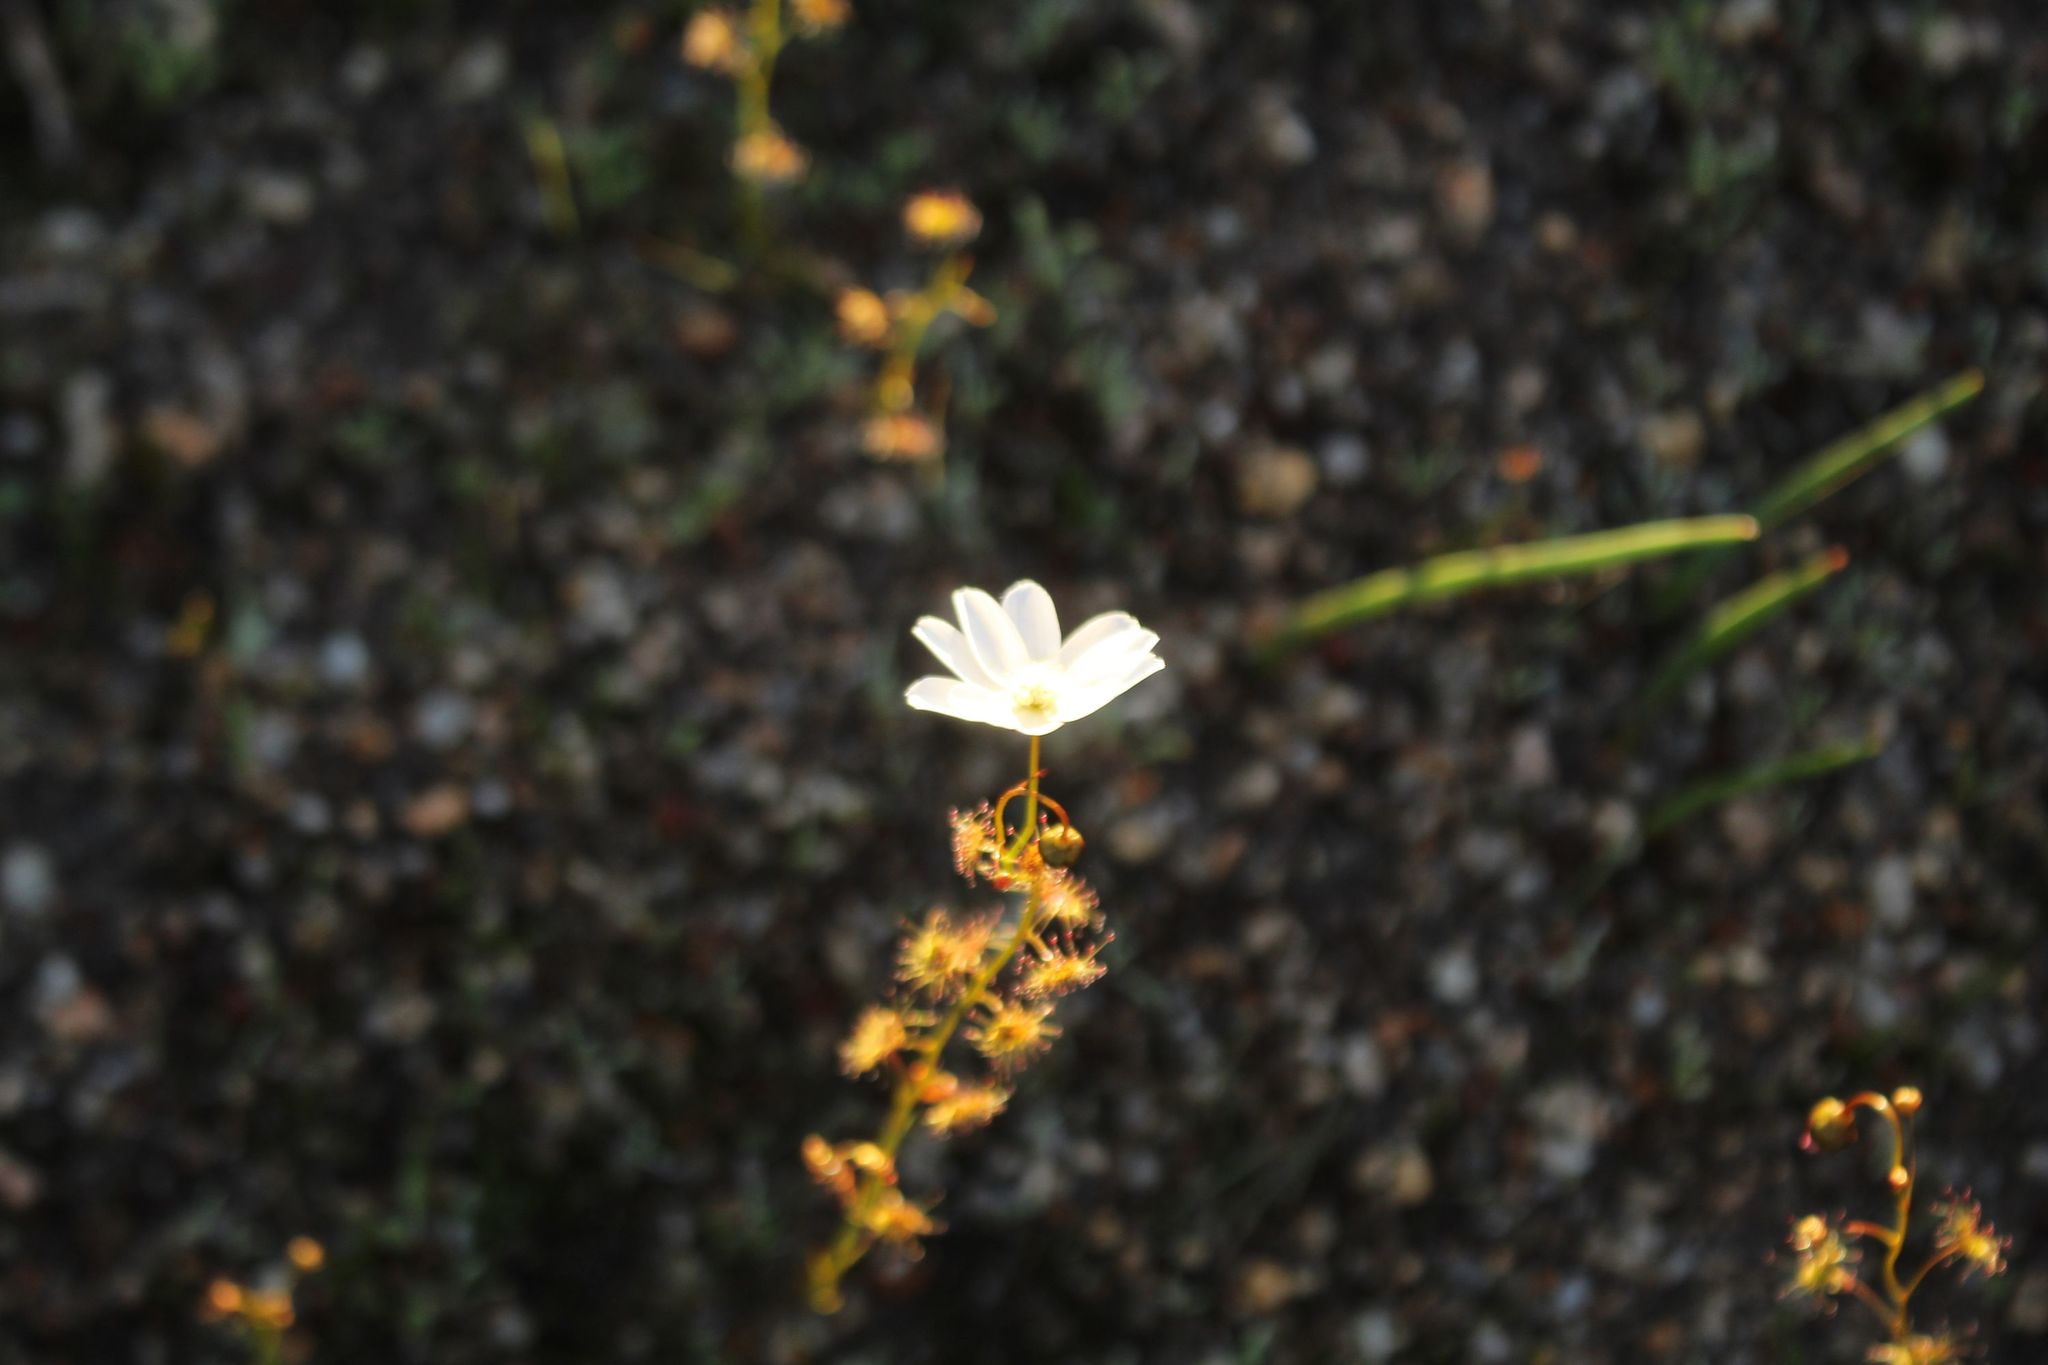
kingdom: Plantae
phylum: Tracheophyta
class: Magnoliopsida
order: Caryophyllales
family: Droseraceae
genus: Drosera
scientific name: Drosera heterophylla
